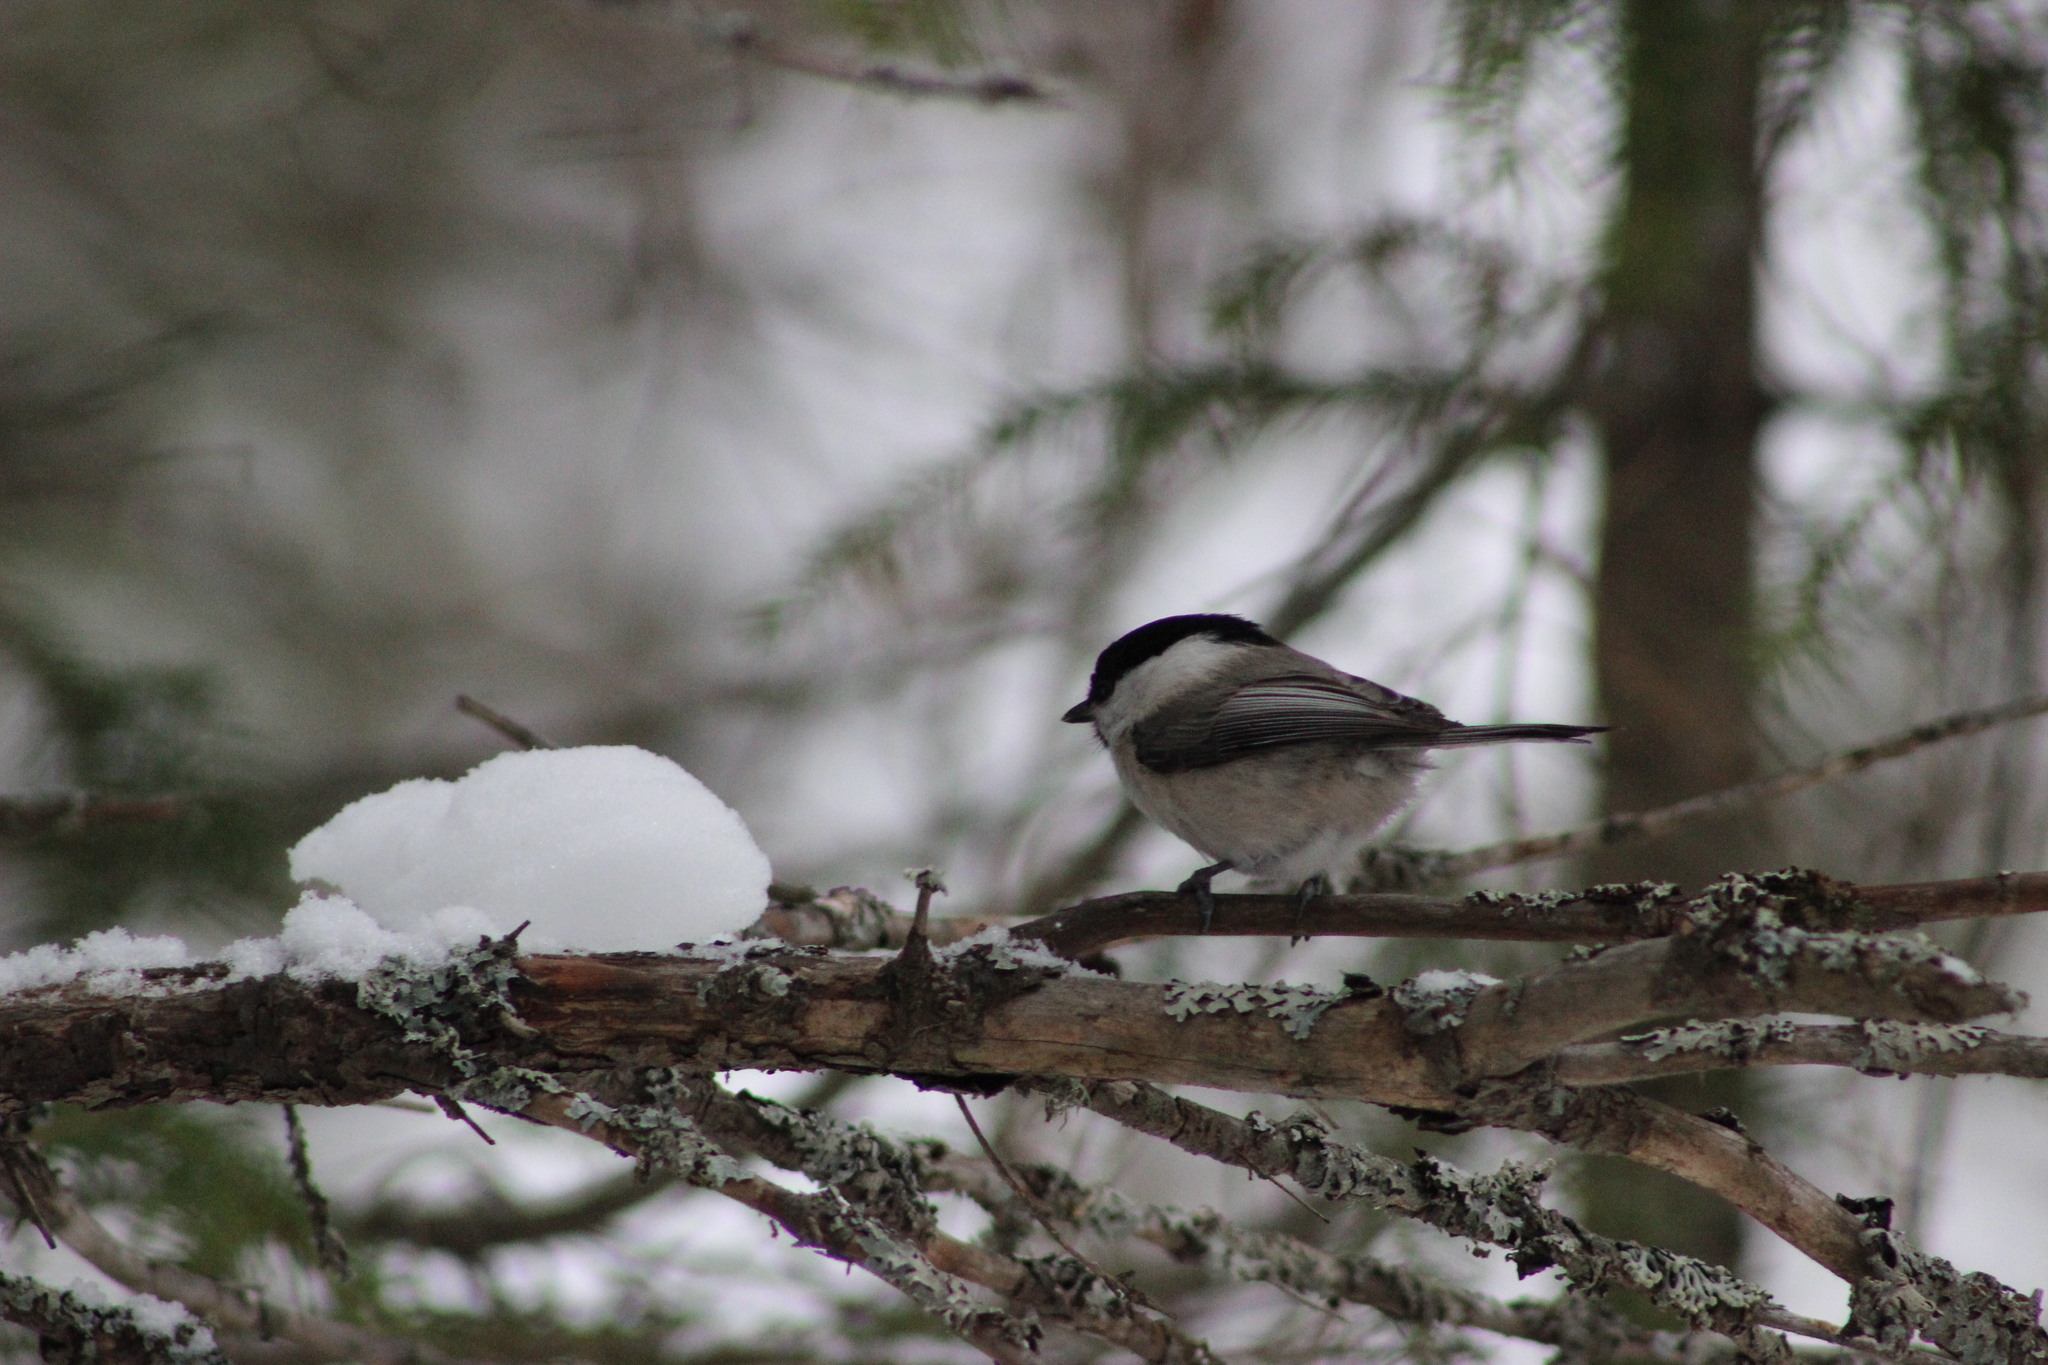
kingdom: Animalia
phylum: Chordata
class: Aves
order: Passeriformes
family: Paridae
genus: Poecile
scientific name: Poecile montanus
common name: Willow tit
